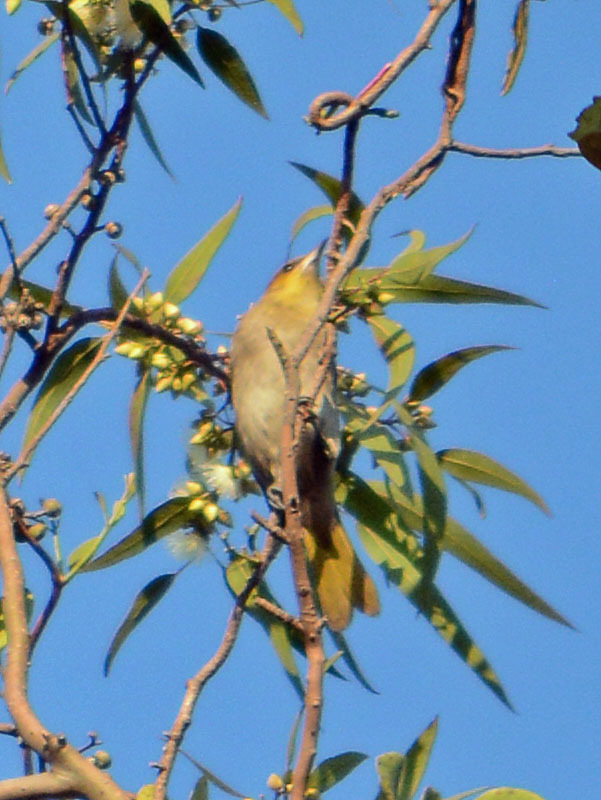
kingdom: Animalia
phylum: Chordata
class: Aves
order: Passeriformes
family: Icteridae
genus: Icterus
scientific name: Icterus bullockii
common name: Bullock's oriole
